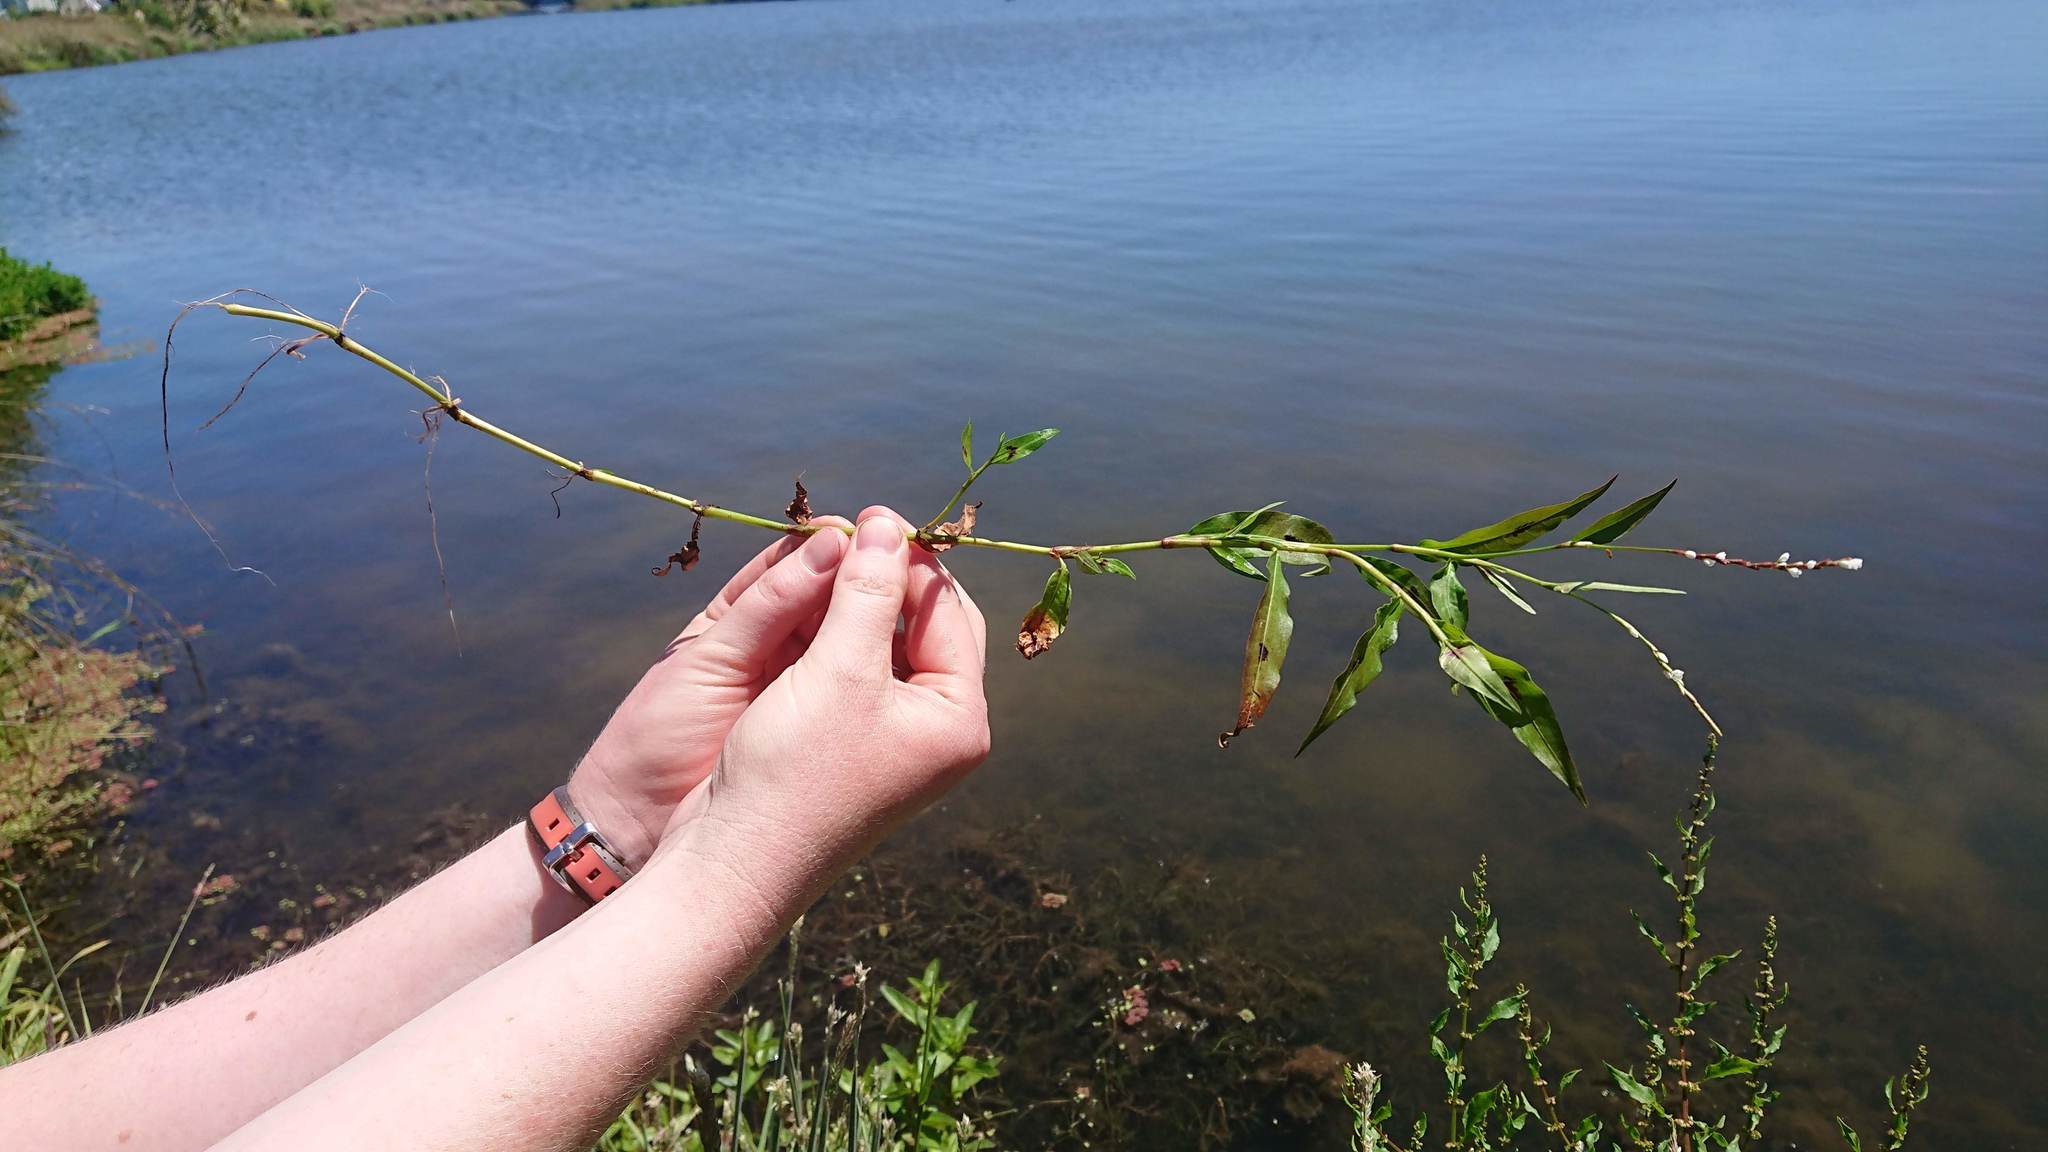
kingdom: Plantae
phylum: Tracheophyta
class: Magnoliopsida
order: Caryophyllales
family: Polygonaceae
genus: Persicaria
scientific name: Persicaria decipiens
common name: Willow-weed
